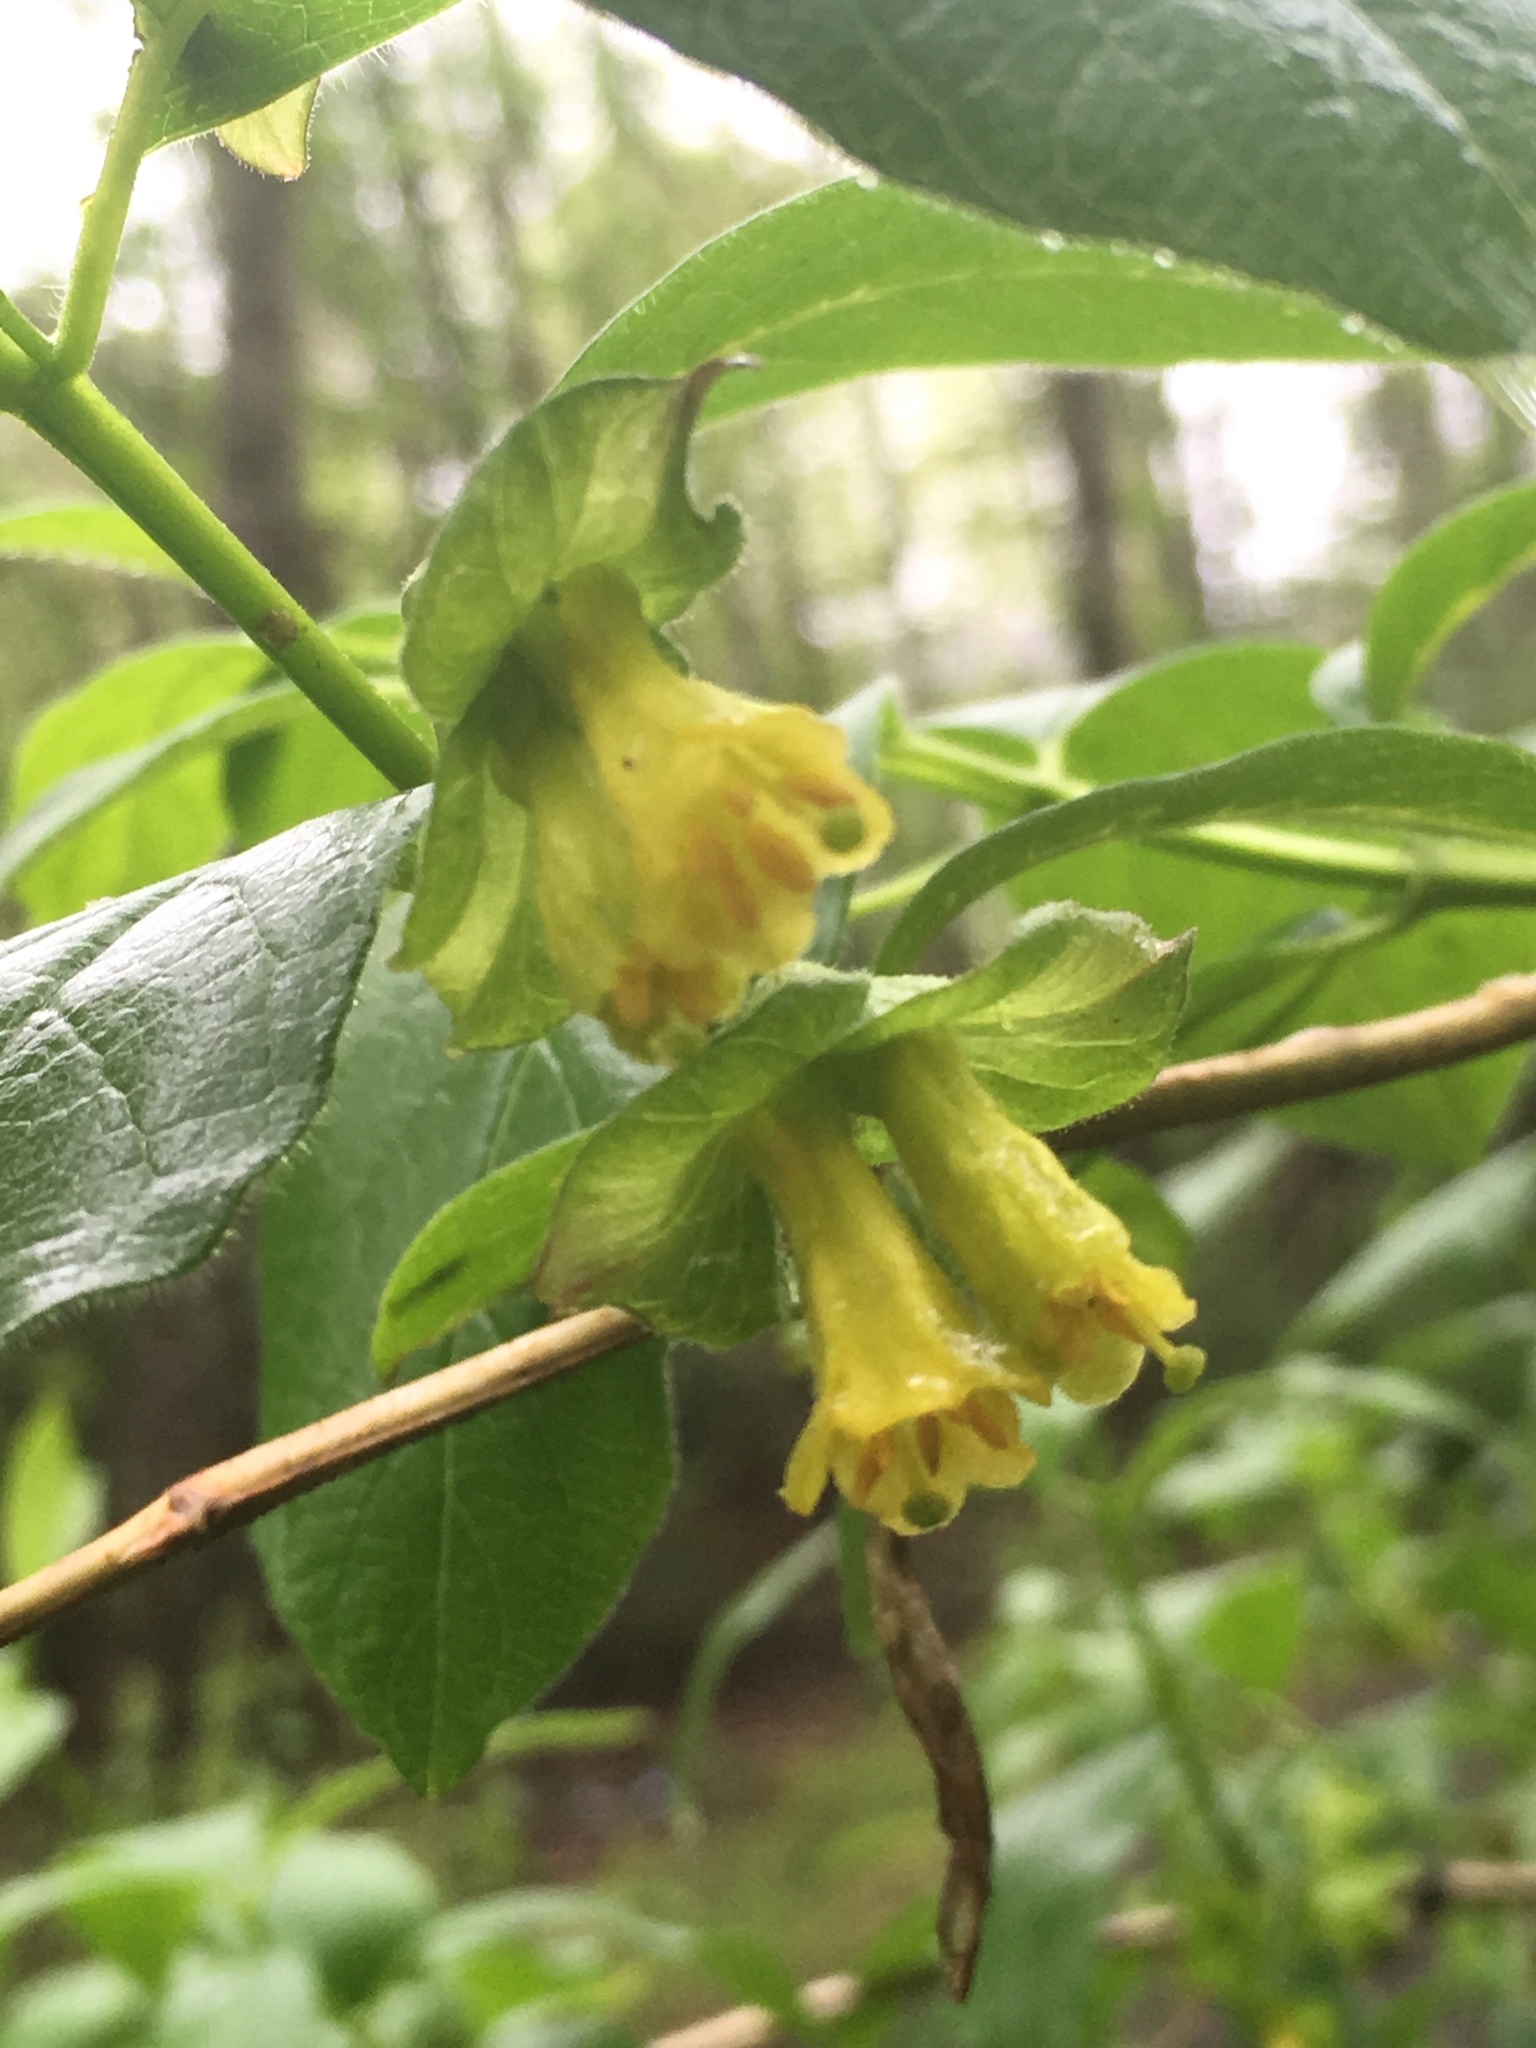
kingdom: Plantae
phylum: Tracheophyta
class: Magnoliopsida
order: Dipsacales
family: Caprifoliaceae
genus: Lonicera
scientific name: Lonicera involucrata
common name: Californian honeysuckle
